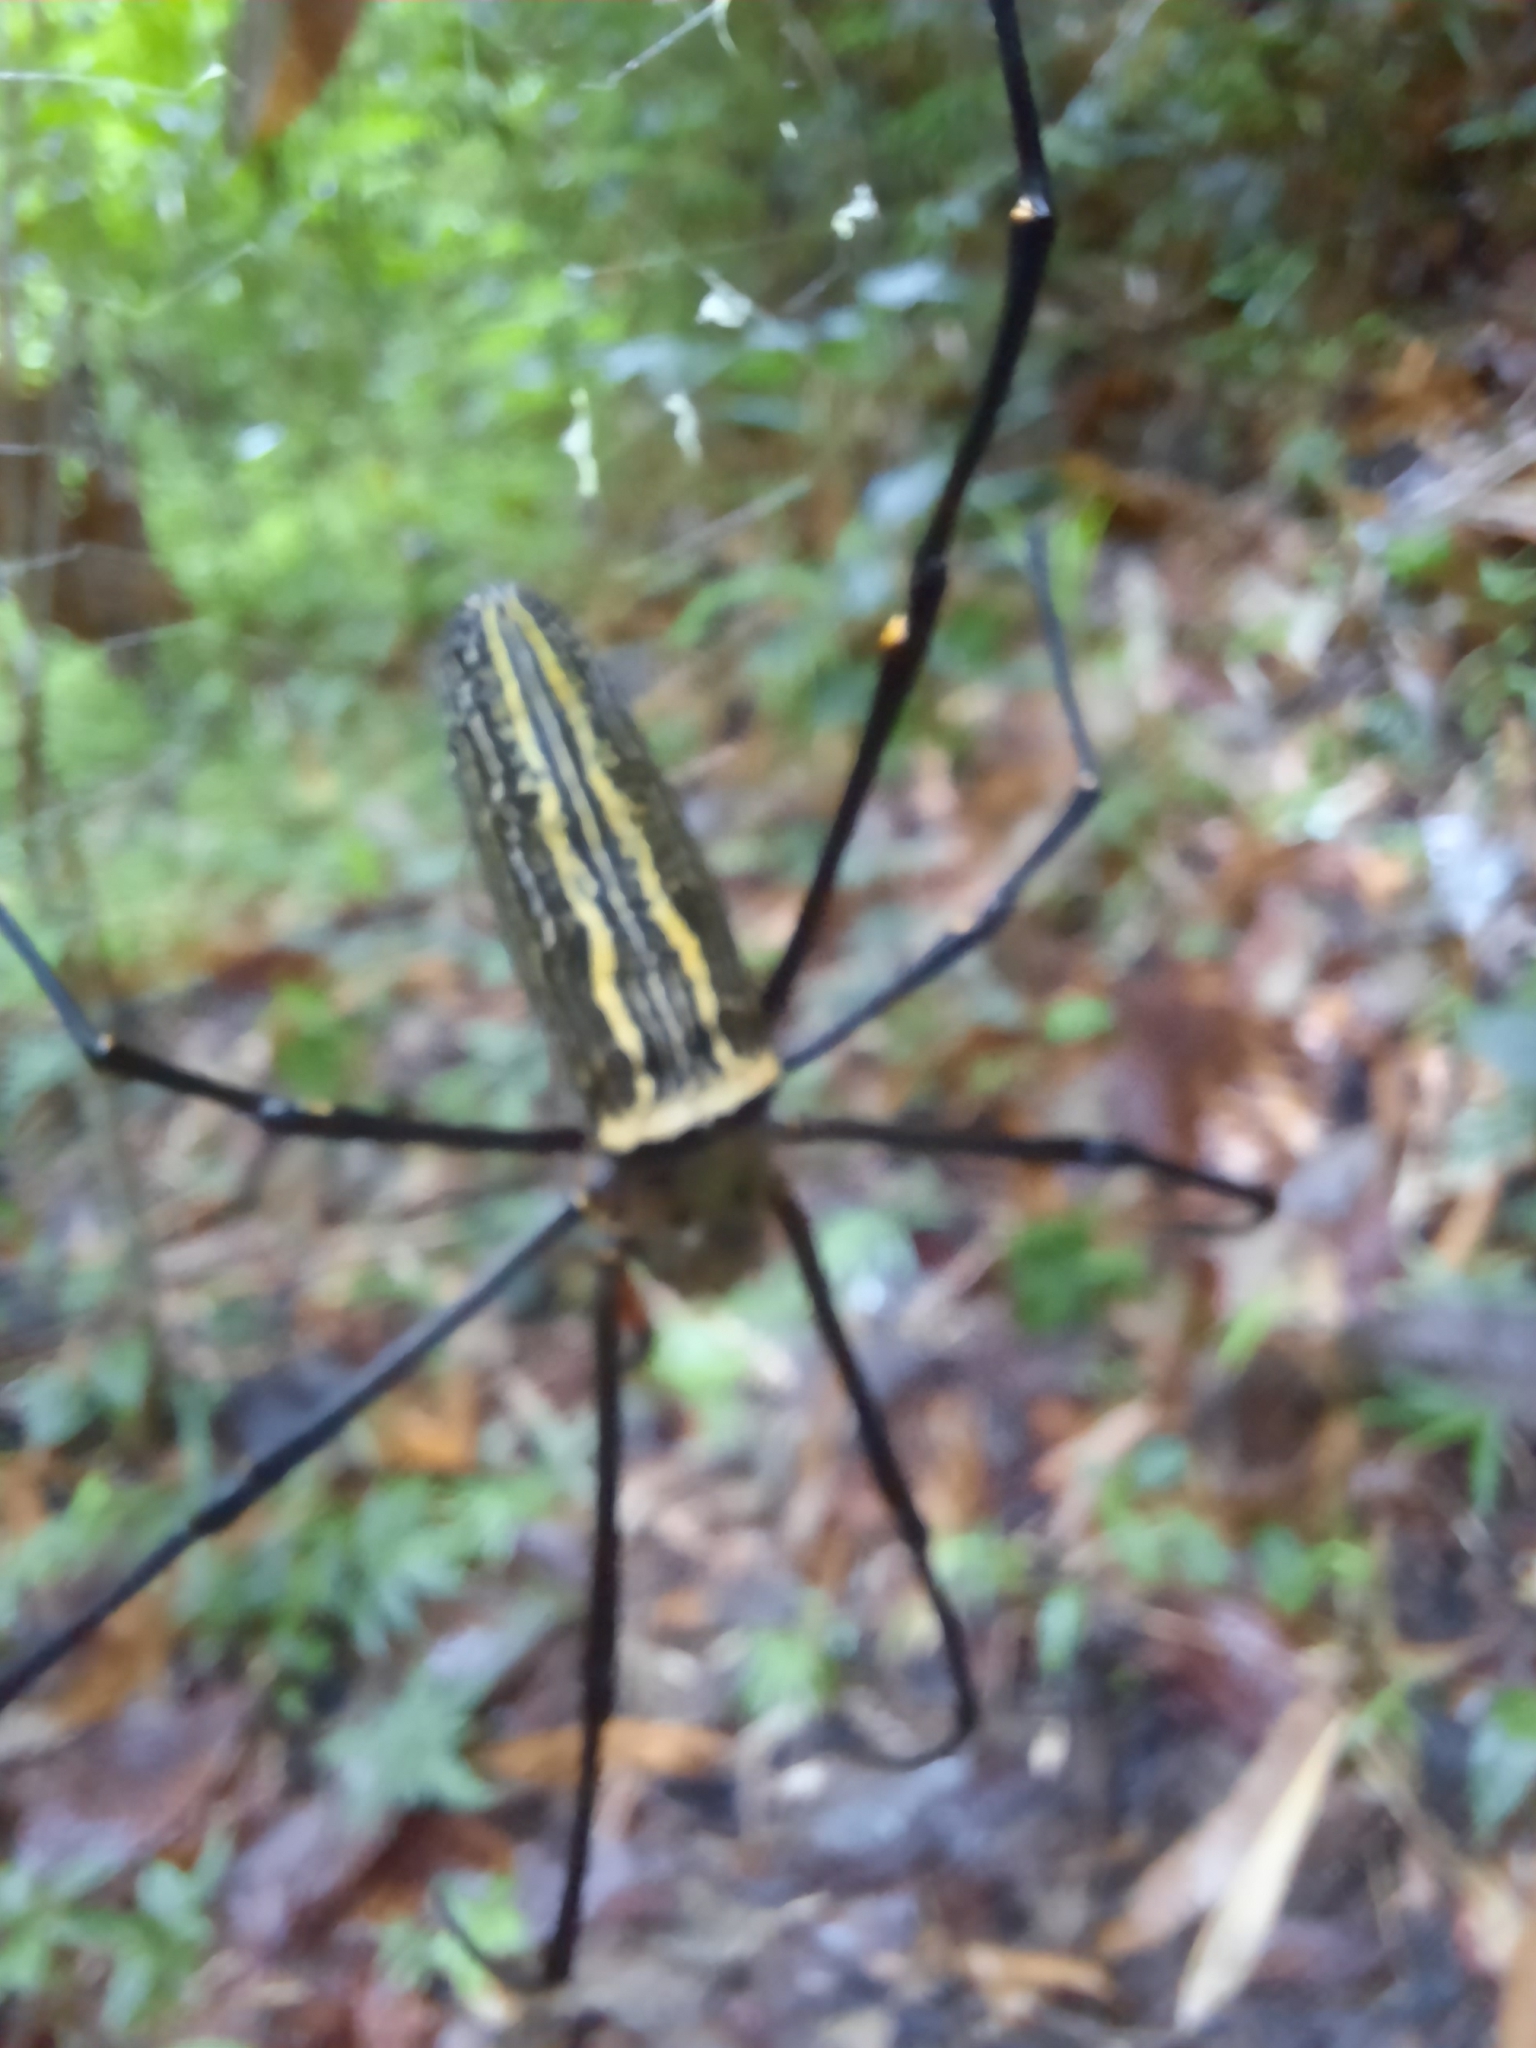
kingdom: Animalia
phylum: Arthropoda
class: Arachnida
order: Araneae
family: Araneidae
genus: Nephila
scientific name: Nephila pilipes
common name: Giant golden orb weaver
